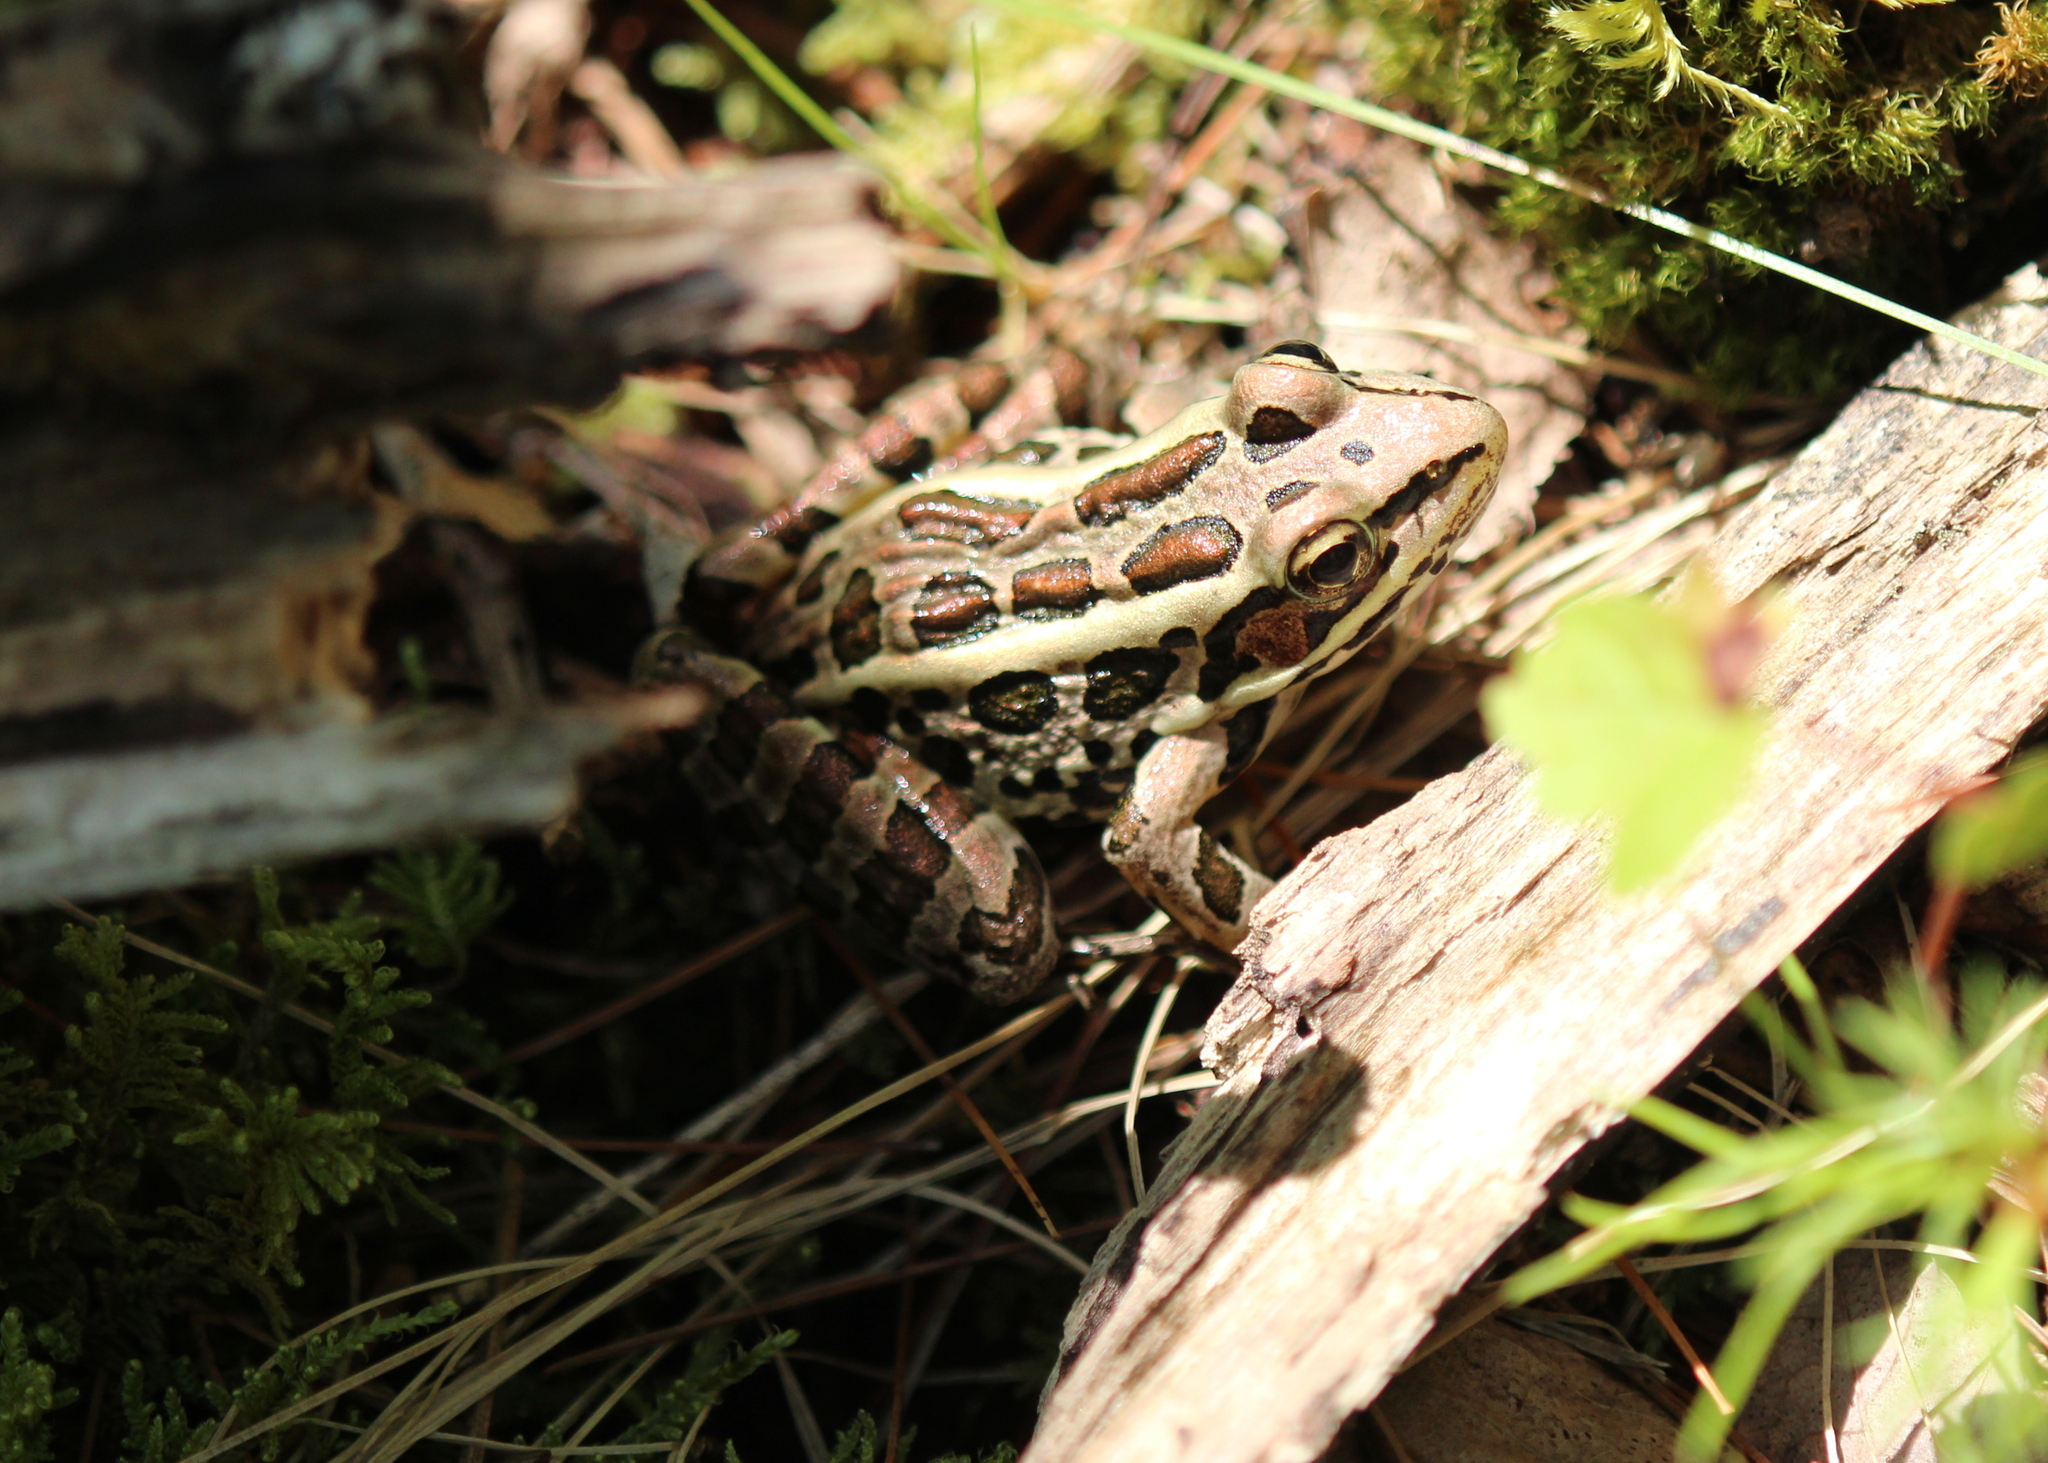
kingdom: Animalia
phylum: Chordata
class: Amphibia
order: Anura
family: Ranidae
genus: Lithobates
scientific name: Lithobates palustris
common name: Pickerel frog
